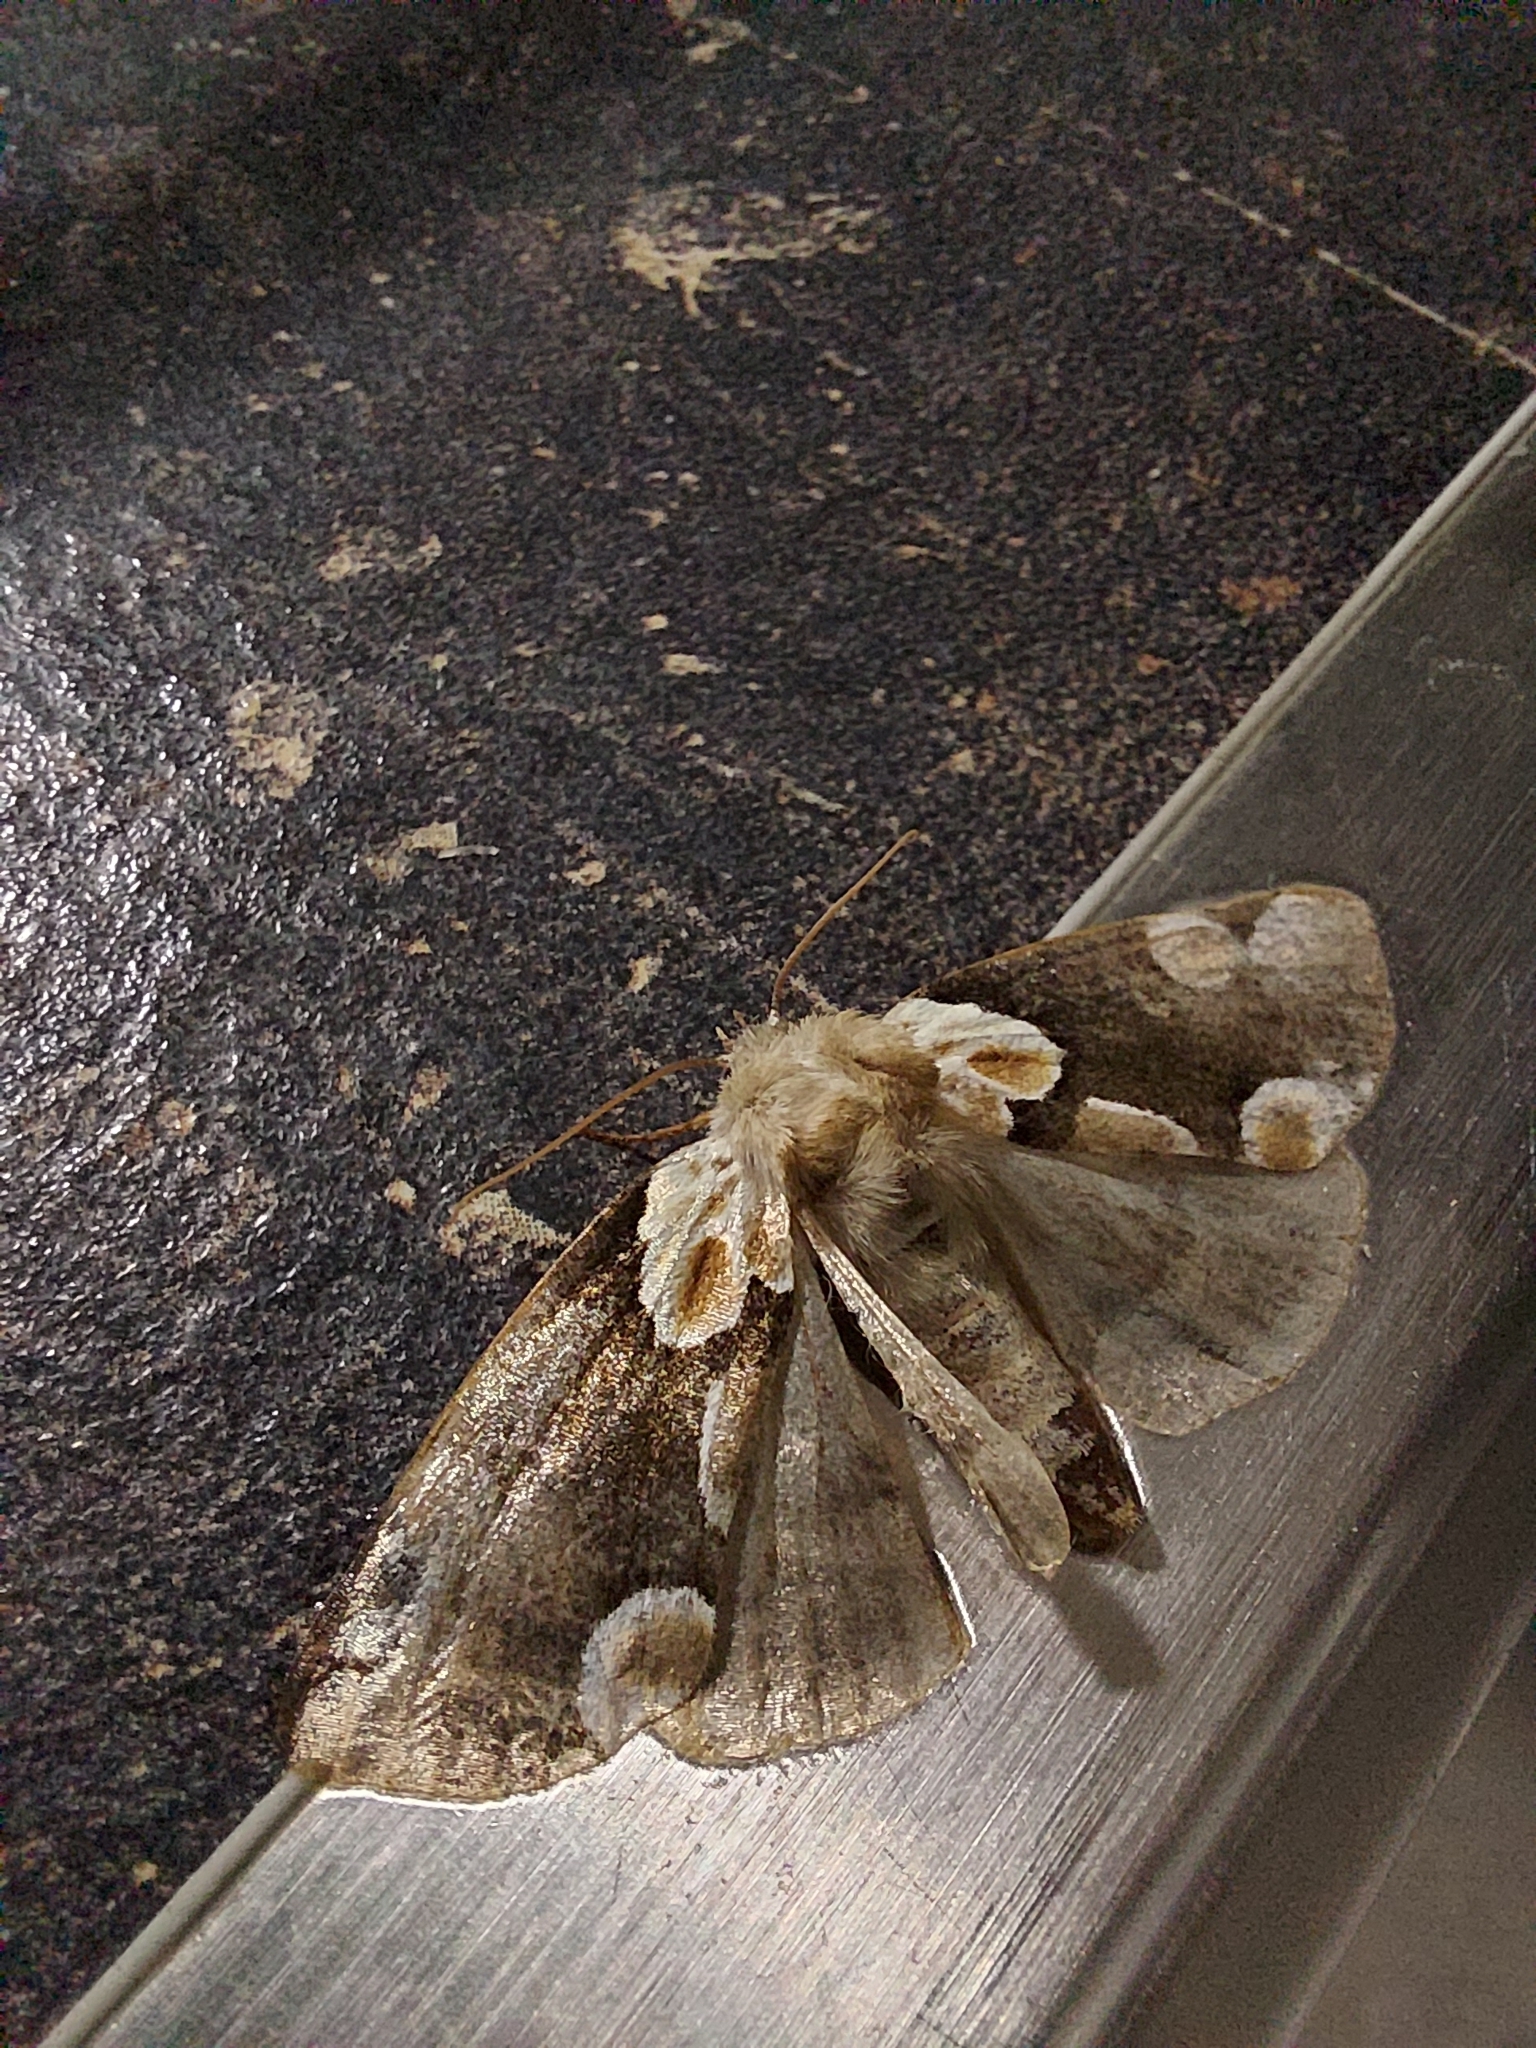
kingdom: Animalia
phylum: Arthropoda
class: Insecta
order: Lepidoptera
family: Drepanidae
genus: Thyatira
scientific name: Thyatira batis
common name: Peach blossom
